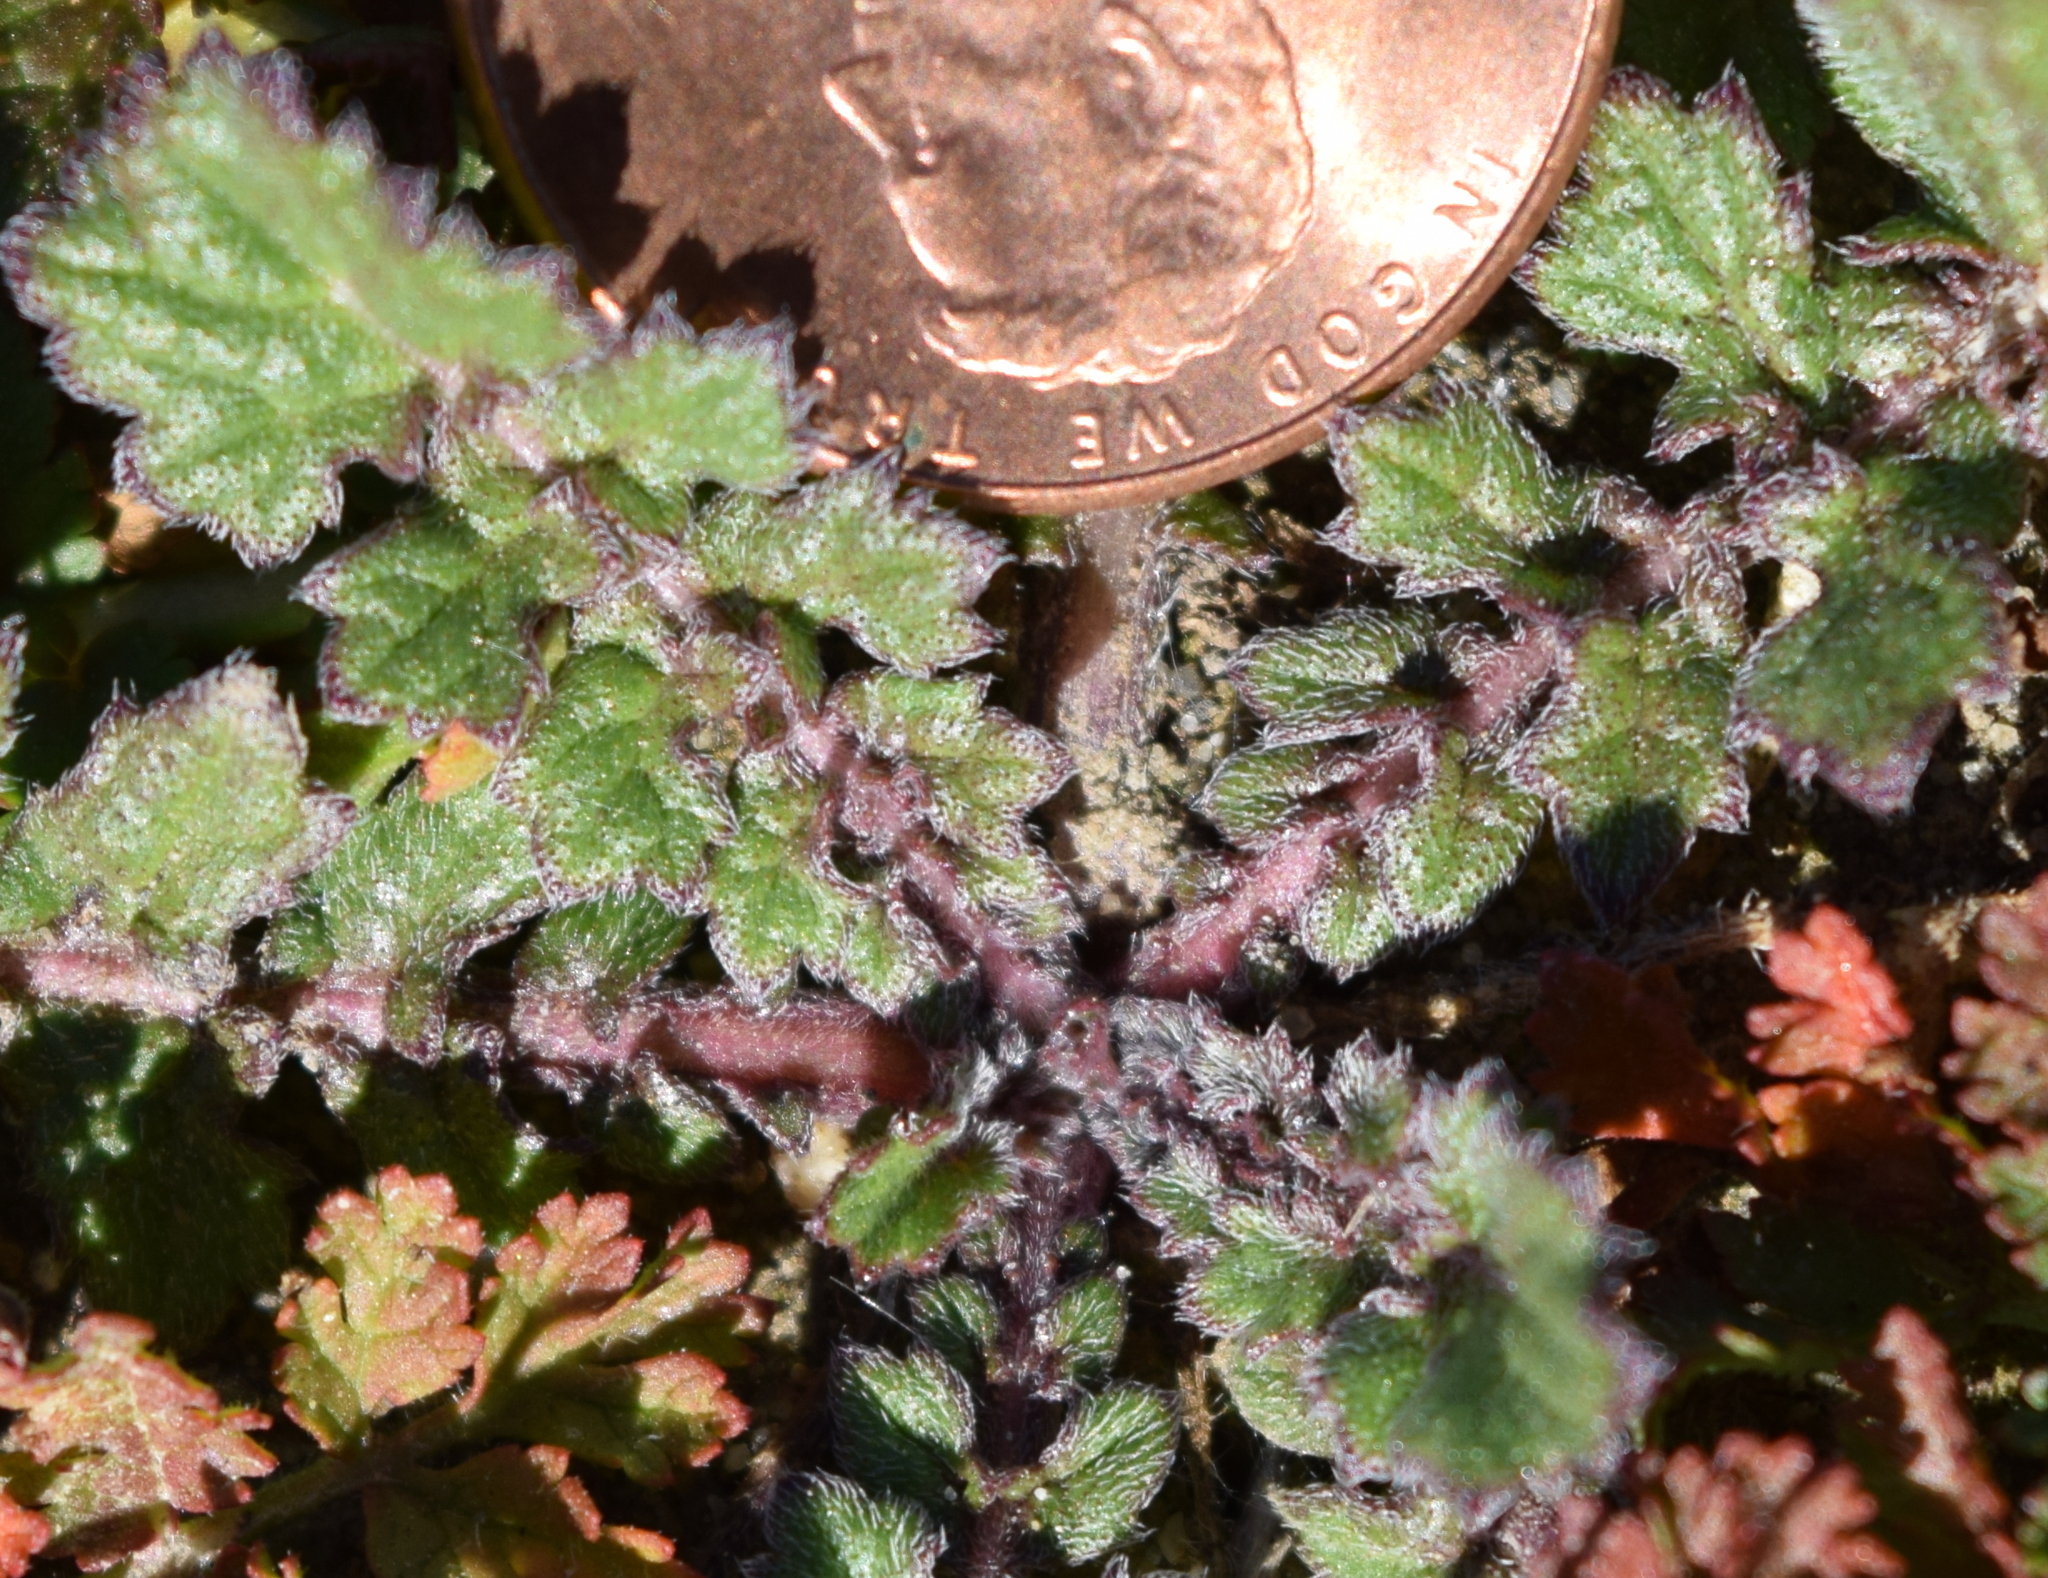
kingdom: Plantae
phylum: Tracheophyta
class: Magnoliopsida
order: Geraniales
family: Geraniaceae
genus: Erodium
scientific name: Erodium
